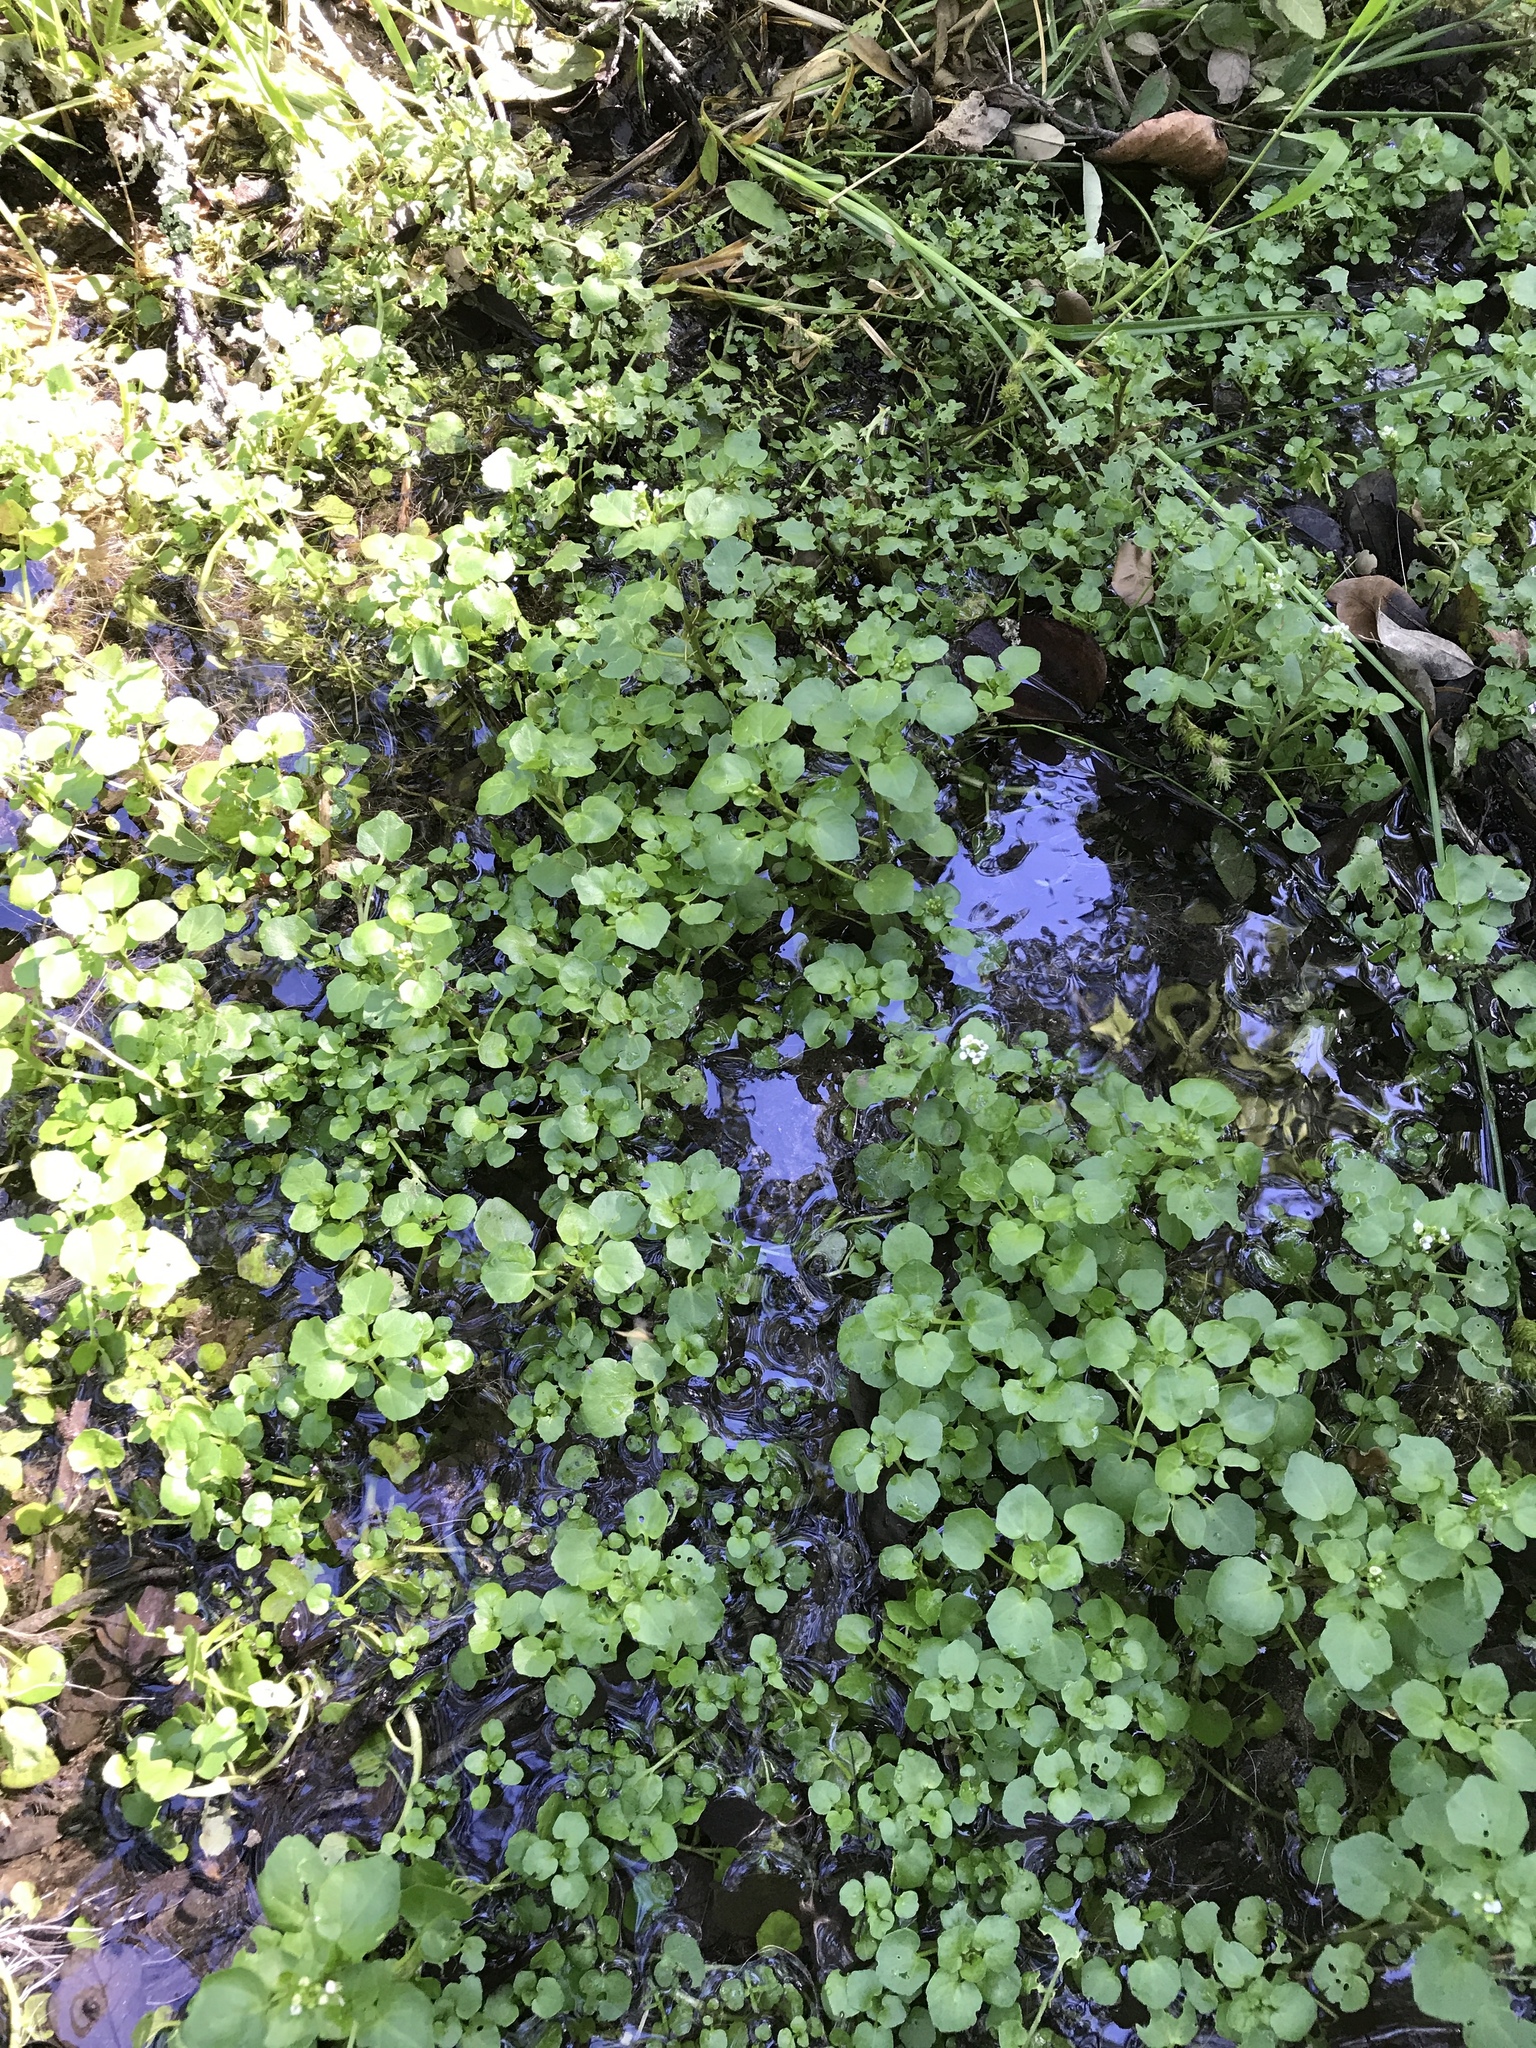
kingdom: Plantae
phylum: Tracheophyta
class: Magnoliopsida
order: Brassicales
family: Brassicaceae
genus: Nasturtium
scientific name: Nasturtium officinale
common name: Watercress
